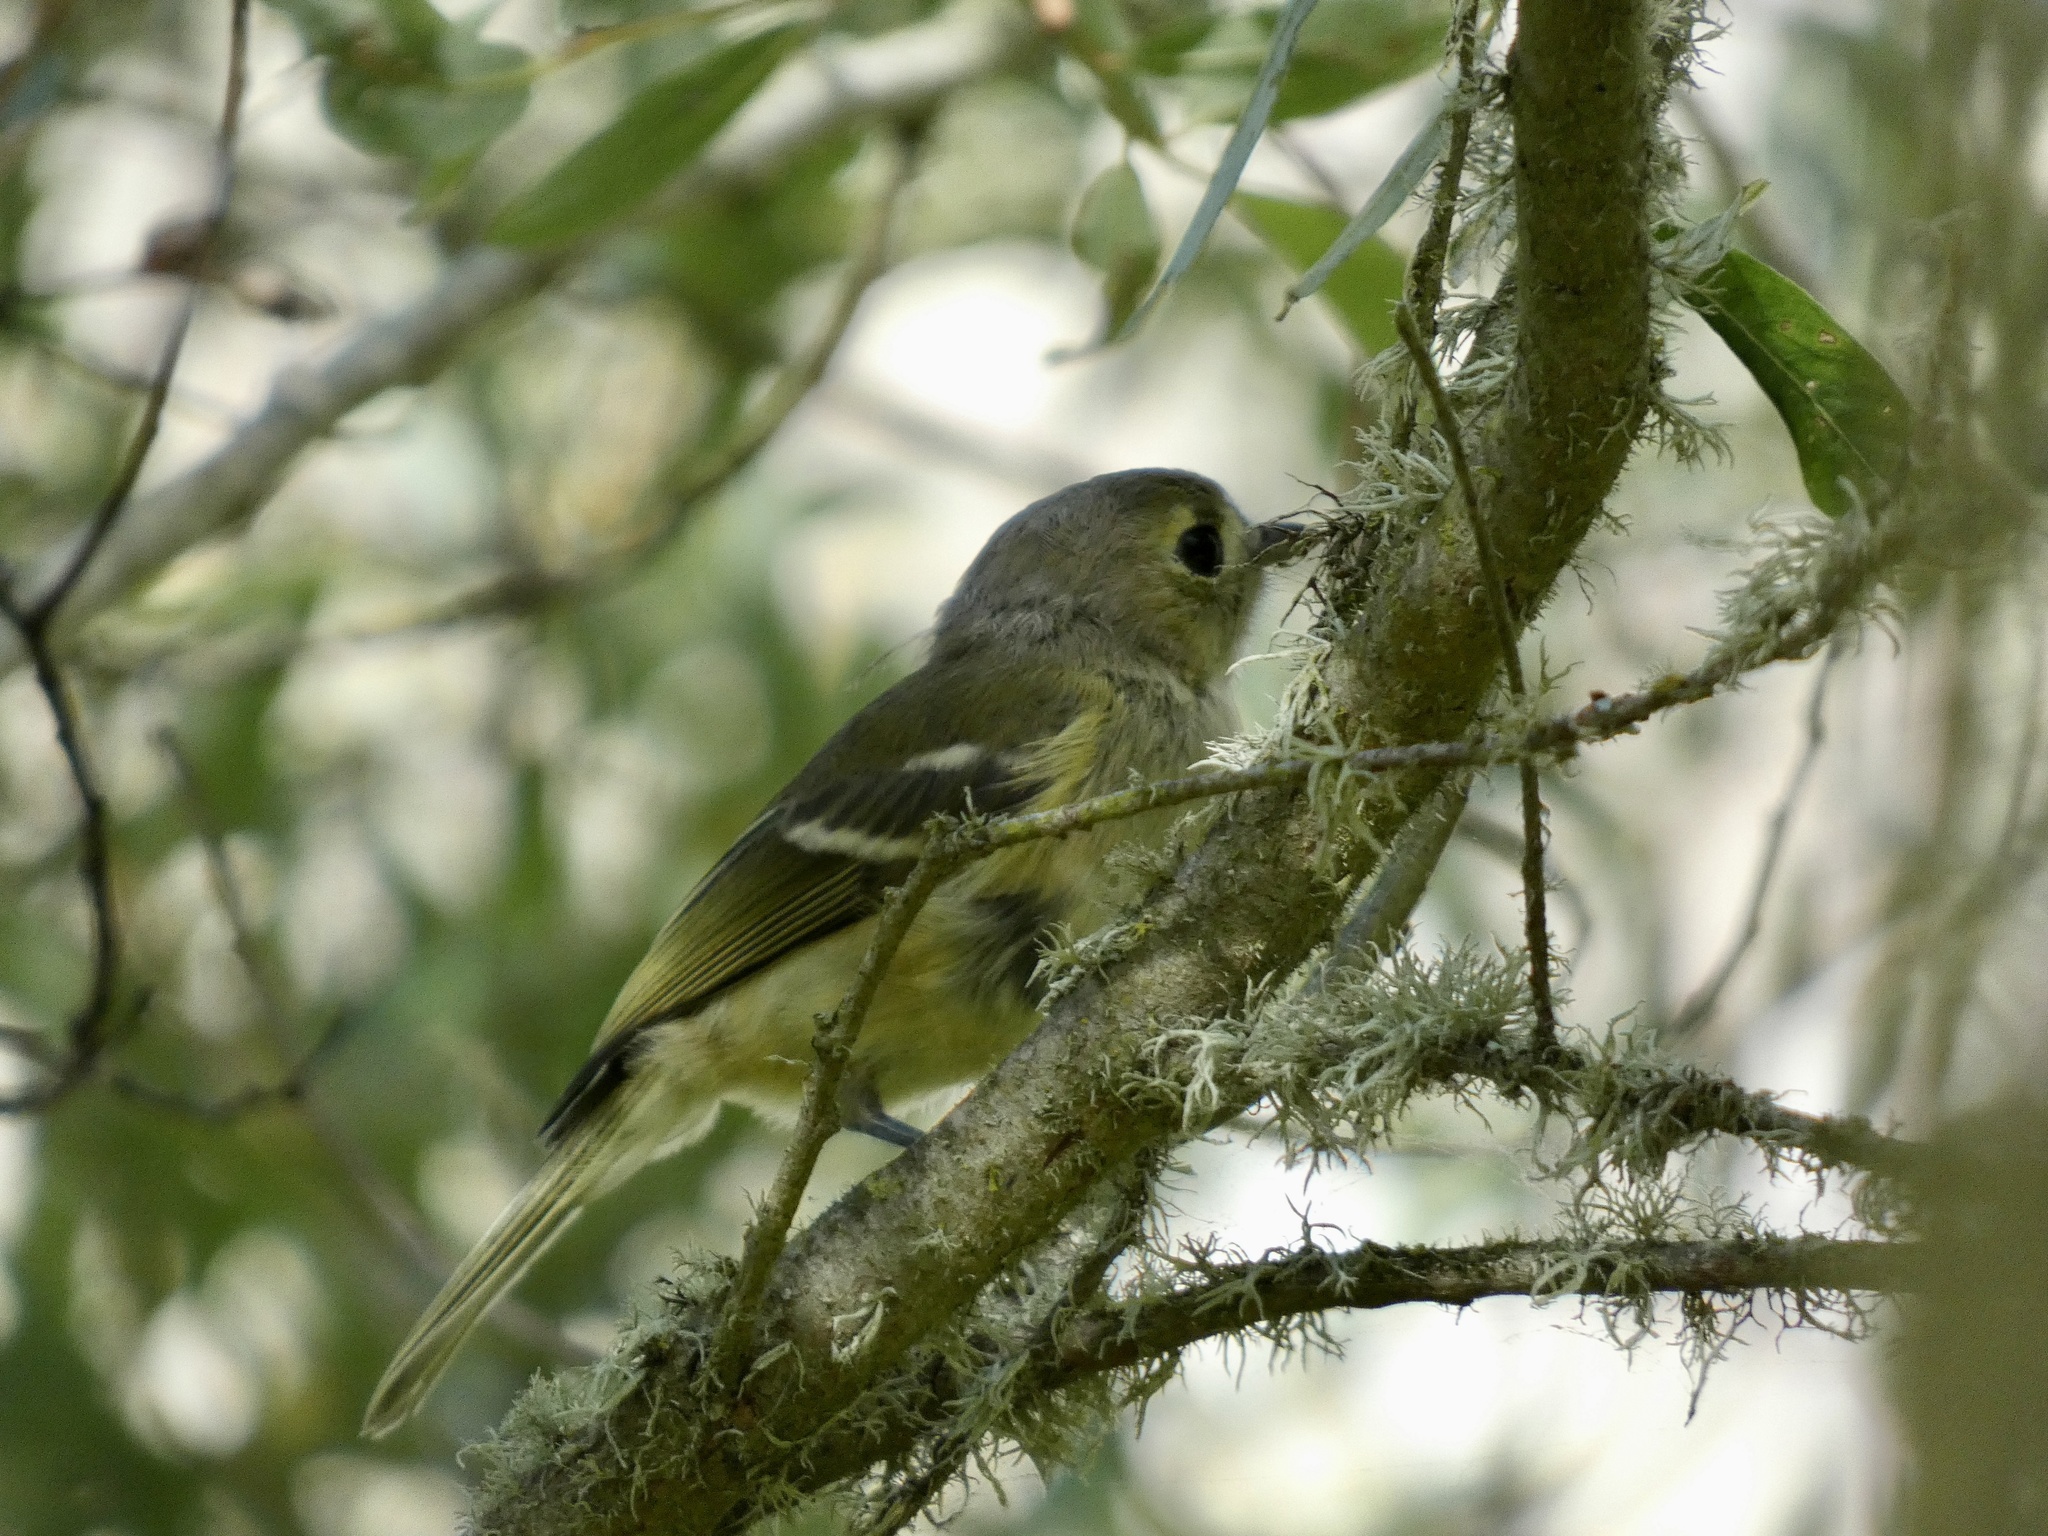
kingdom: Animalia
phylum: Chordata
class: Aves
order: Passeriformes
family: Vireonidae
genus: Vireo
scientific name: Vireo huttoni
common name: Hutton's vireo
